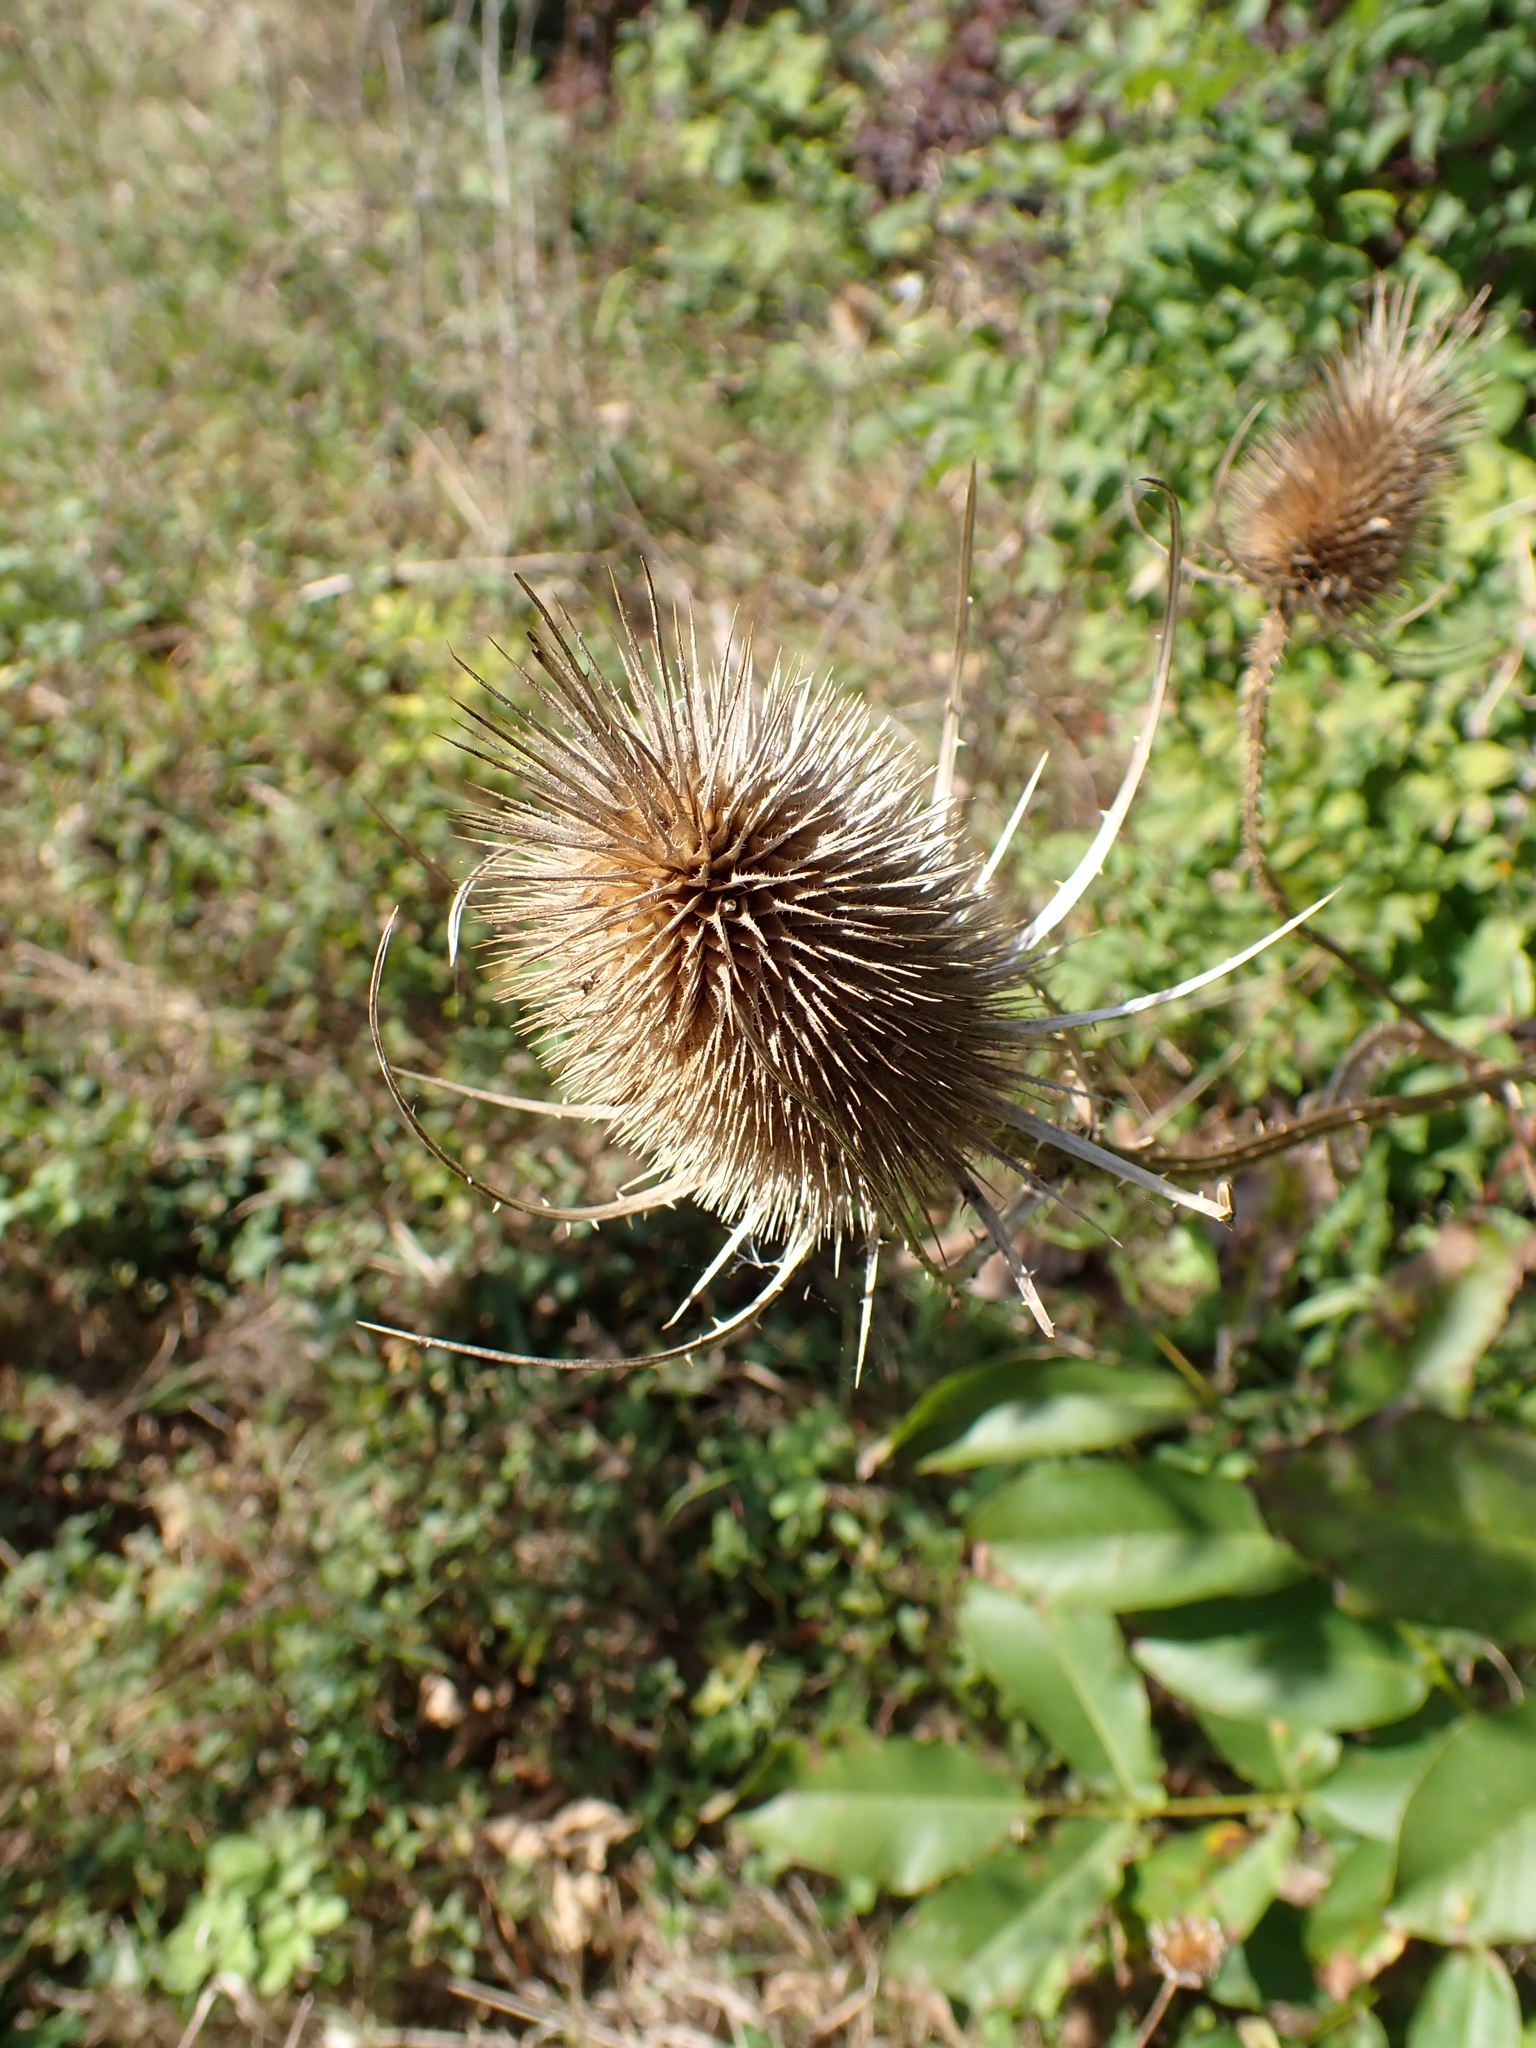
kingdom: Plantae
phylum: Tracheophyta
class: Magnoliopsida
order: Dipsacales
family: Caprifoliaceae
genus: Dipsacus
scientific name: Dipsacus fullonum
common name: Teasel
